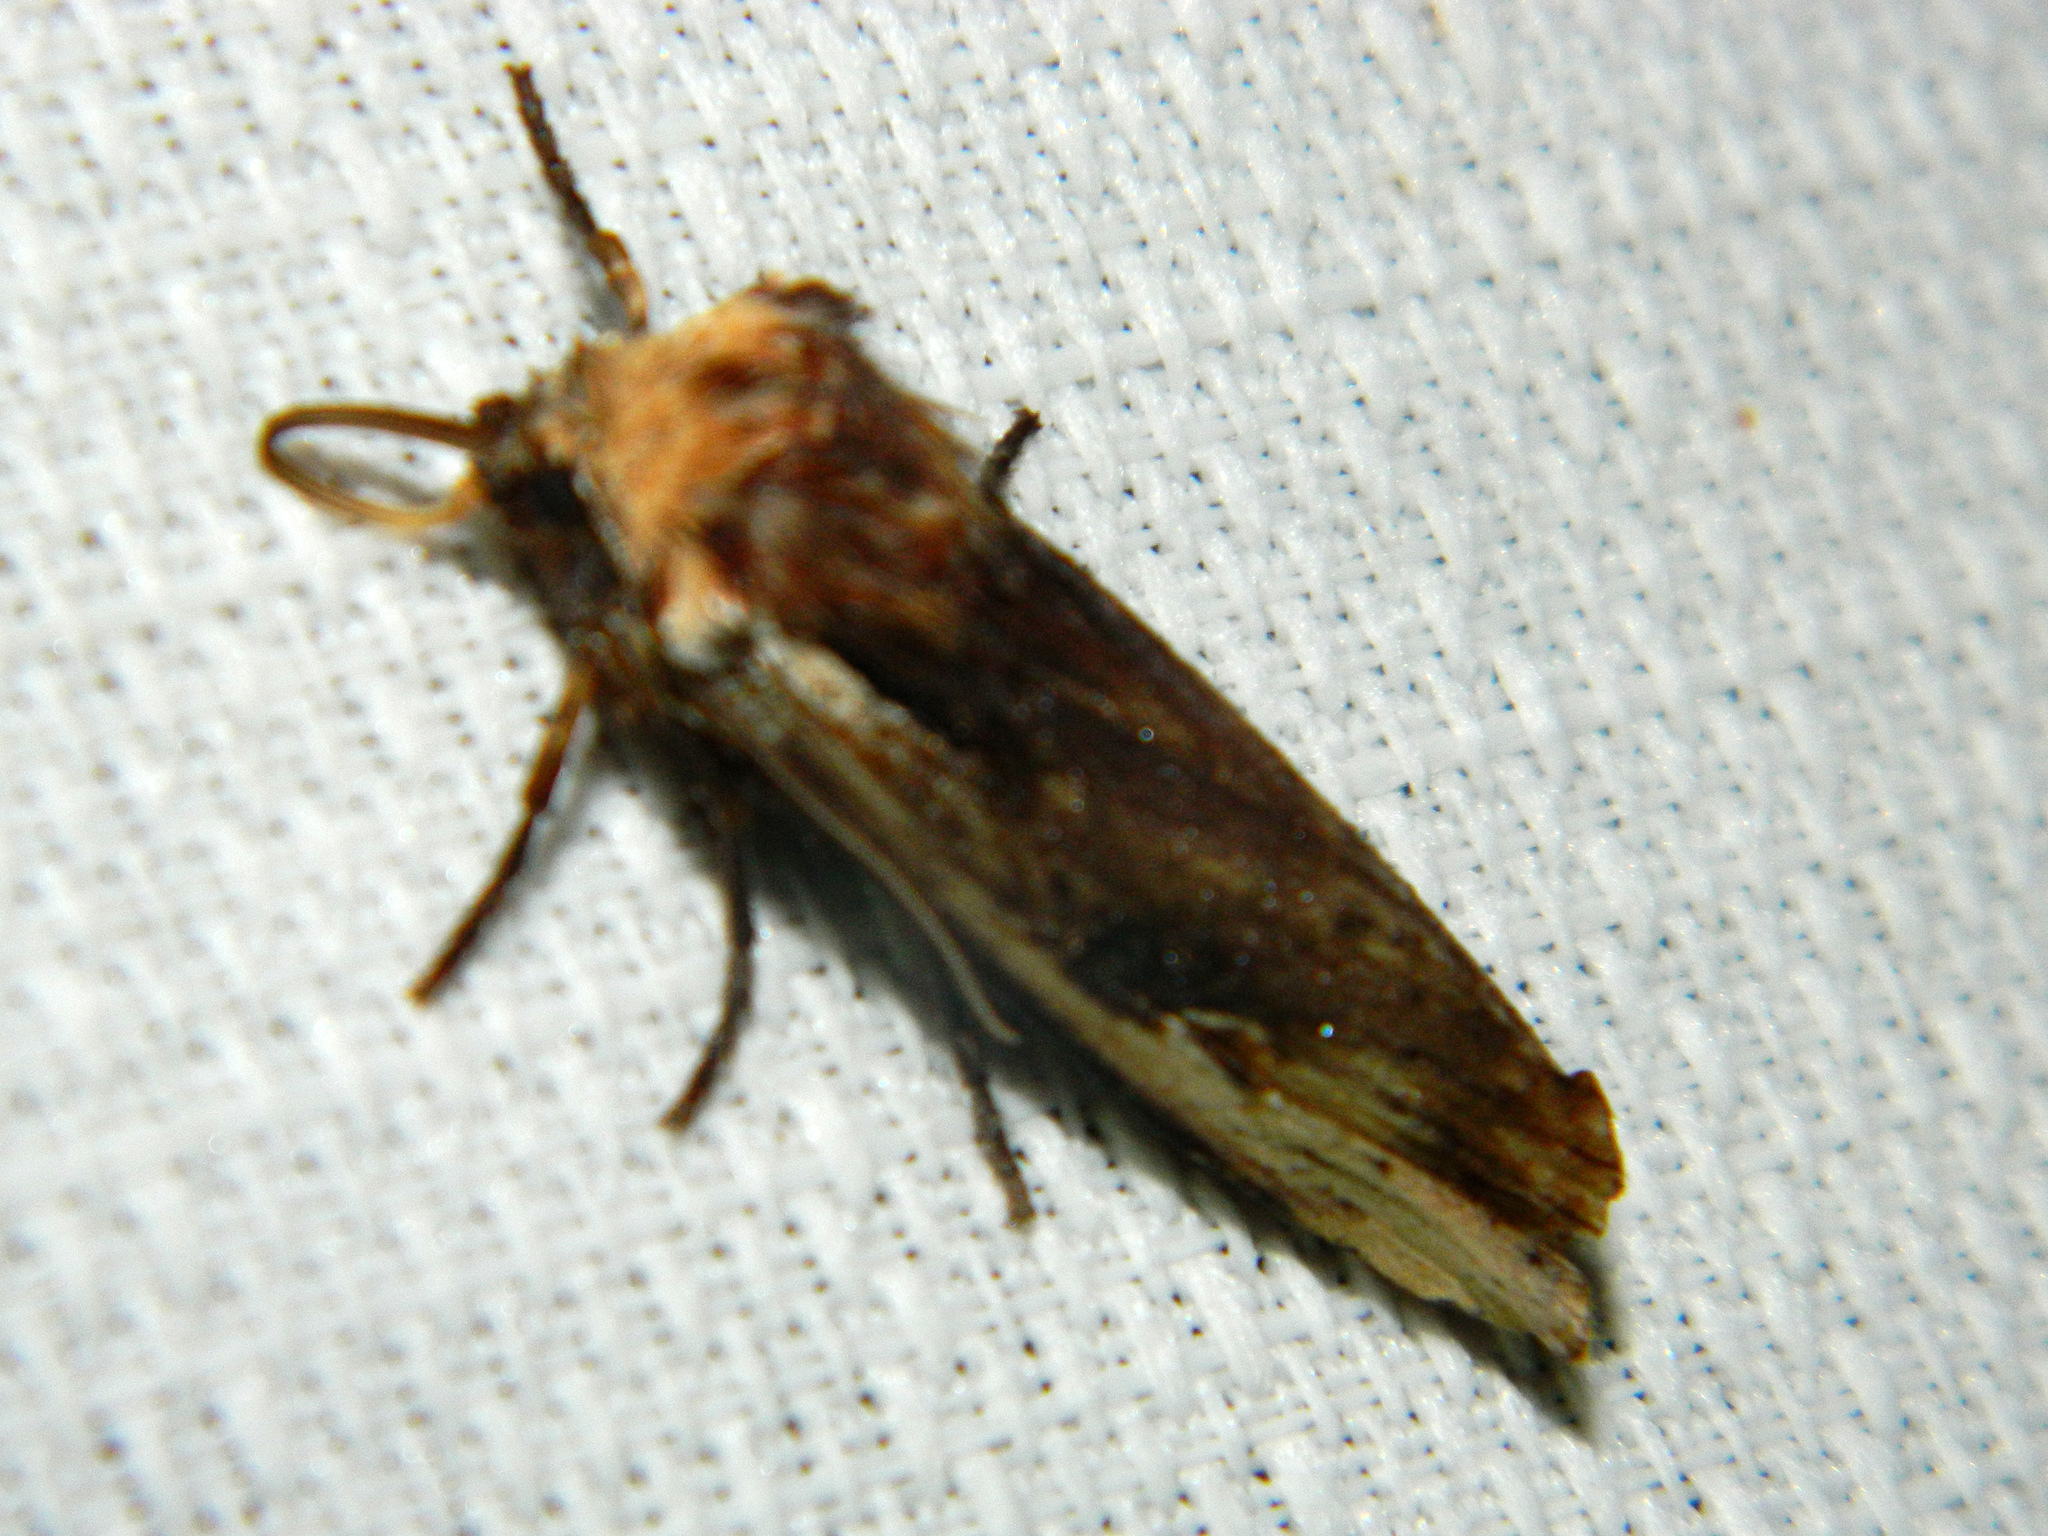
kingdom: Animalia
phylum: Arthropoda
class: Insecta
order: Lepidoptera
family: Noctuidae
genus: Xylena
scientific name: Xylena curvimacula
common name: Dot-and-dash swordgrass moth
